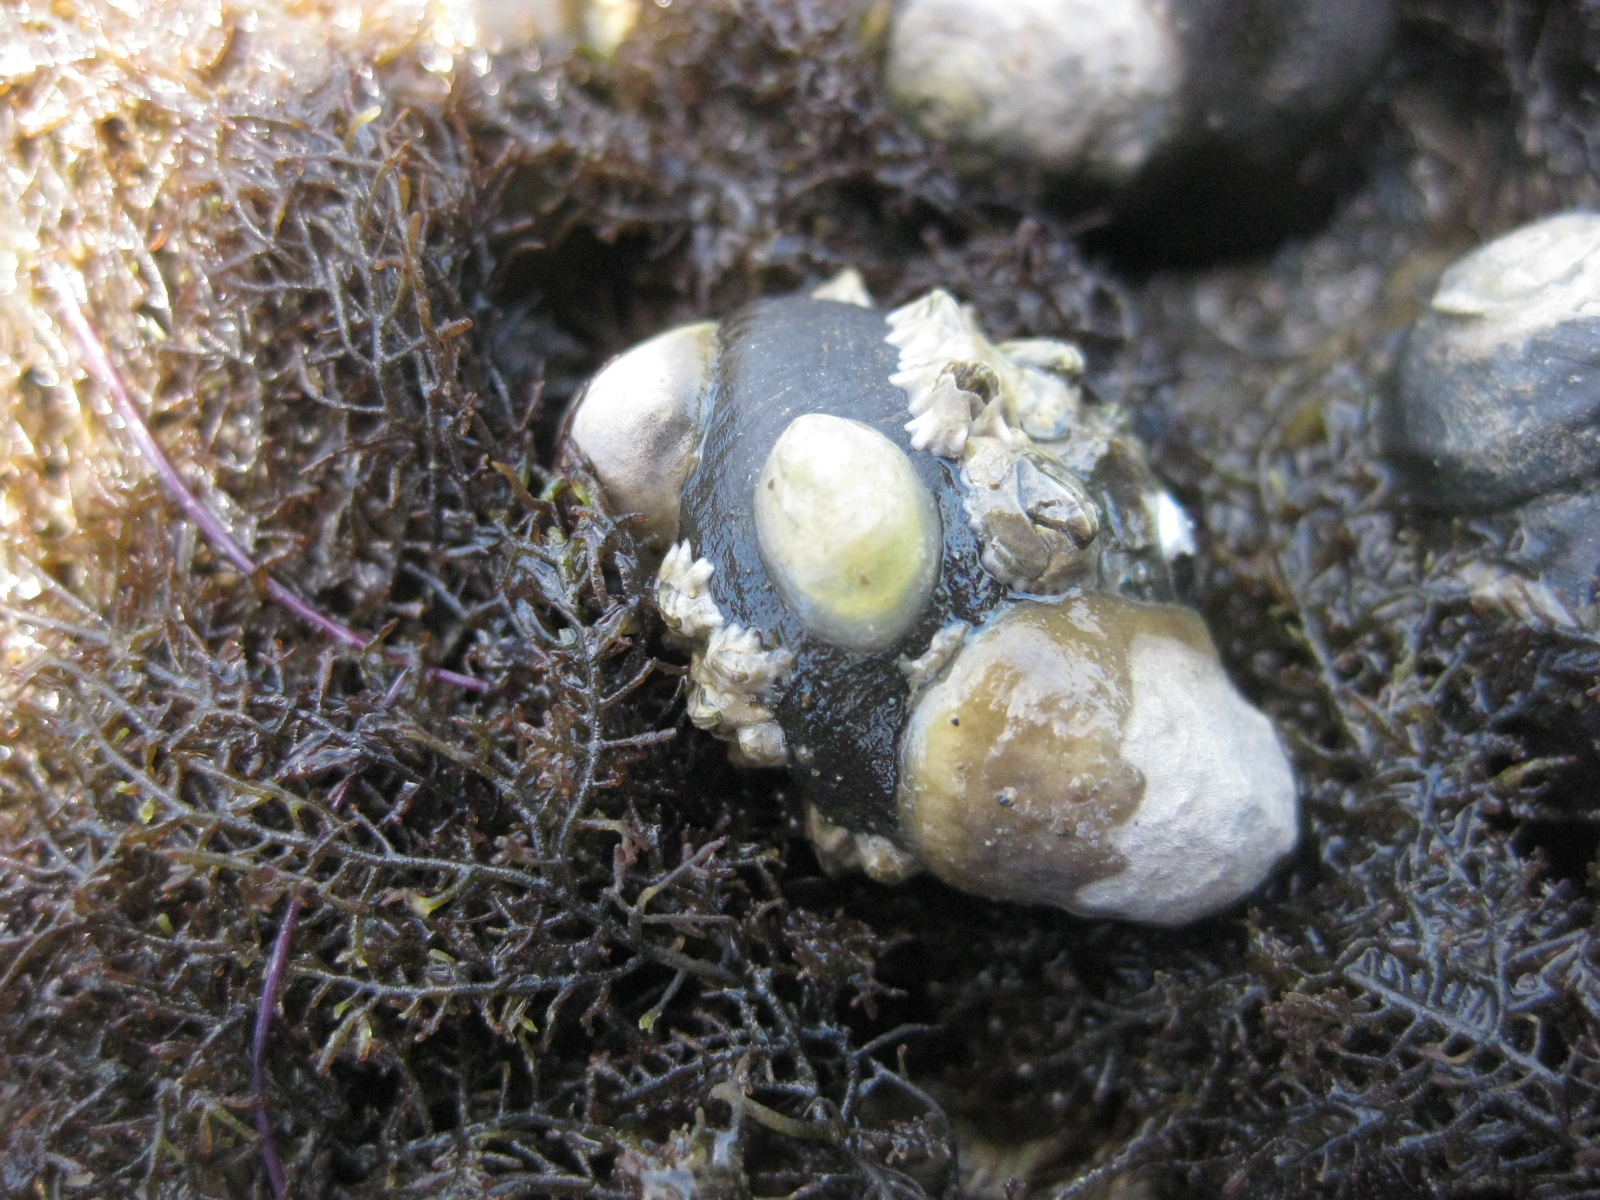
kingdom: Animalia
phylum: Mollusca
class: Gastropoda
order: Littorinimorpha
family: Calyptraeidae
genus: Maoricrypta
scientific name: Maoricrypta monoxyla
